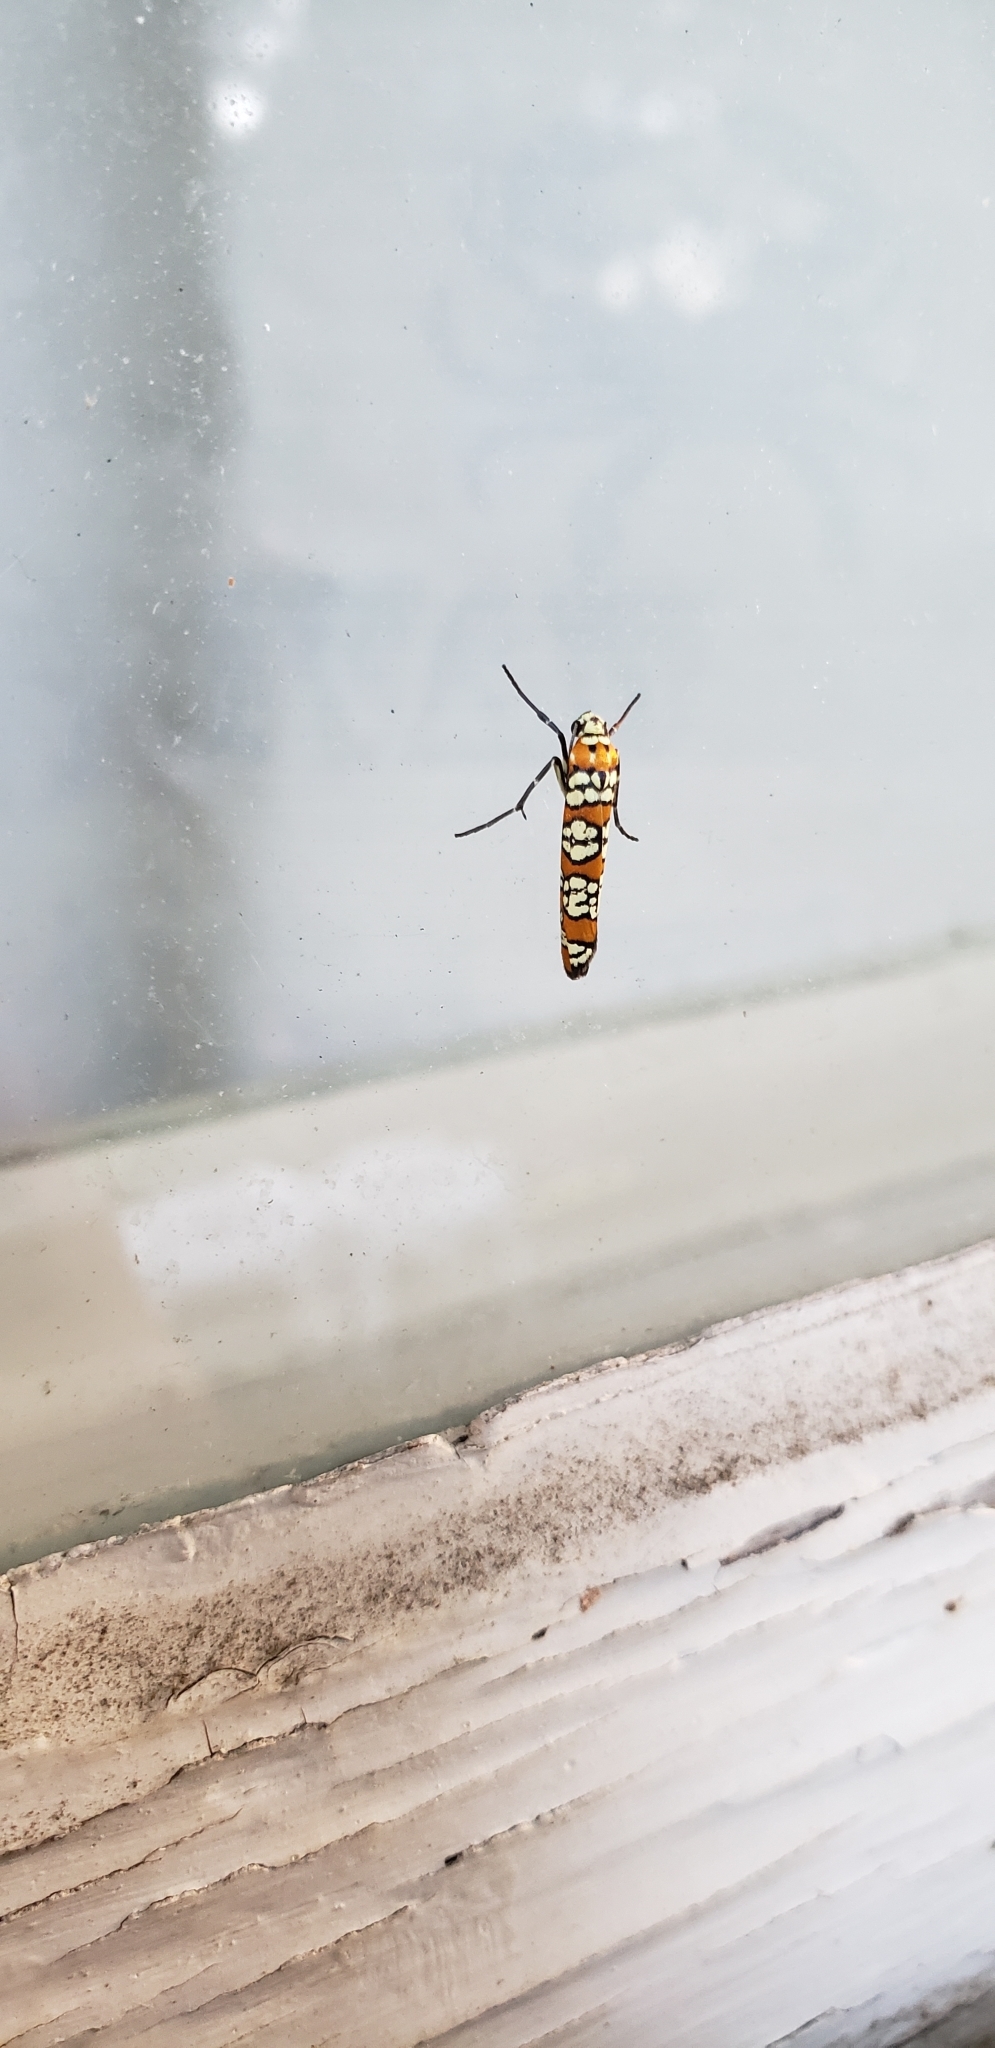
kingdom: Animalia
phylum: Arthropoda
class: Insecta
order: Lepidoptera
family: Attevidae
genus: Atteva
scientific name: Atteva punctella
